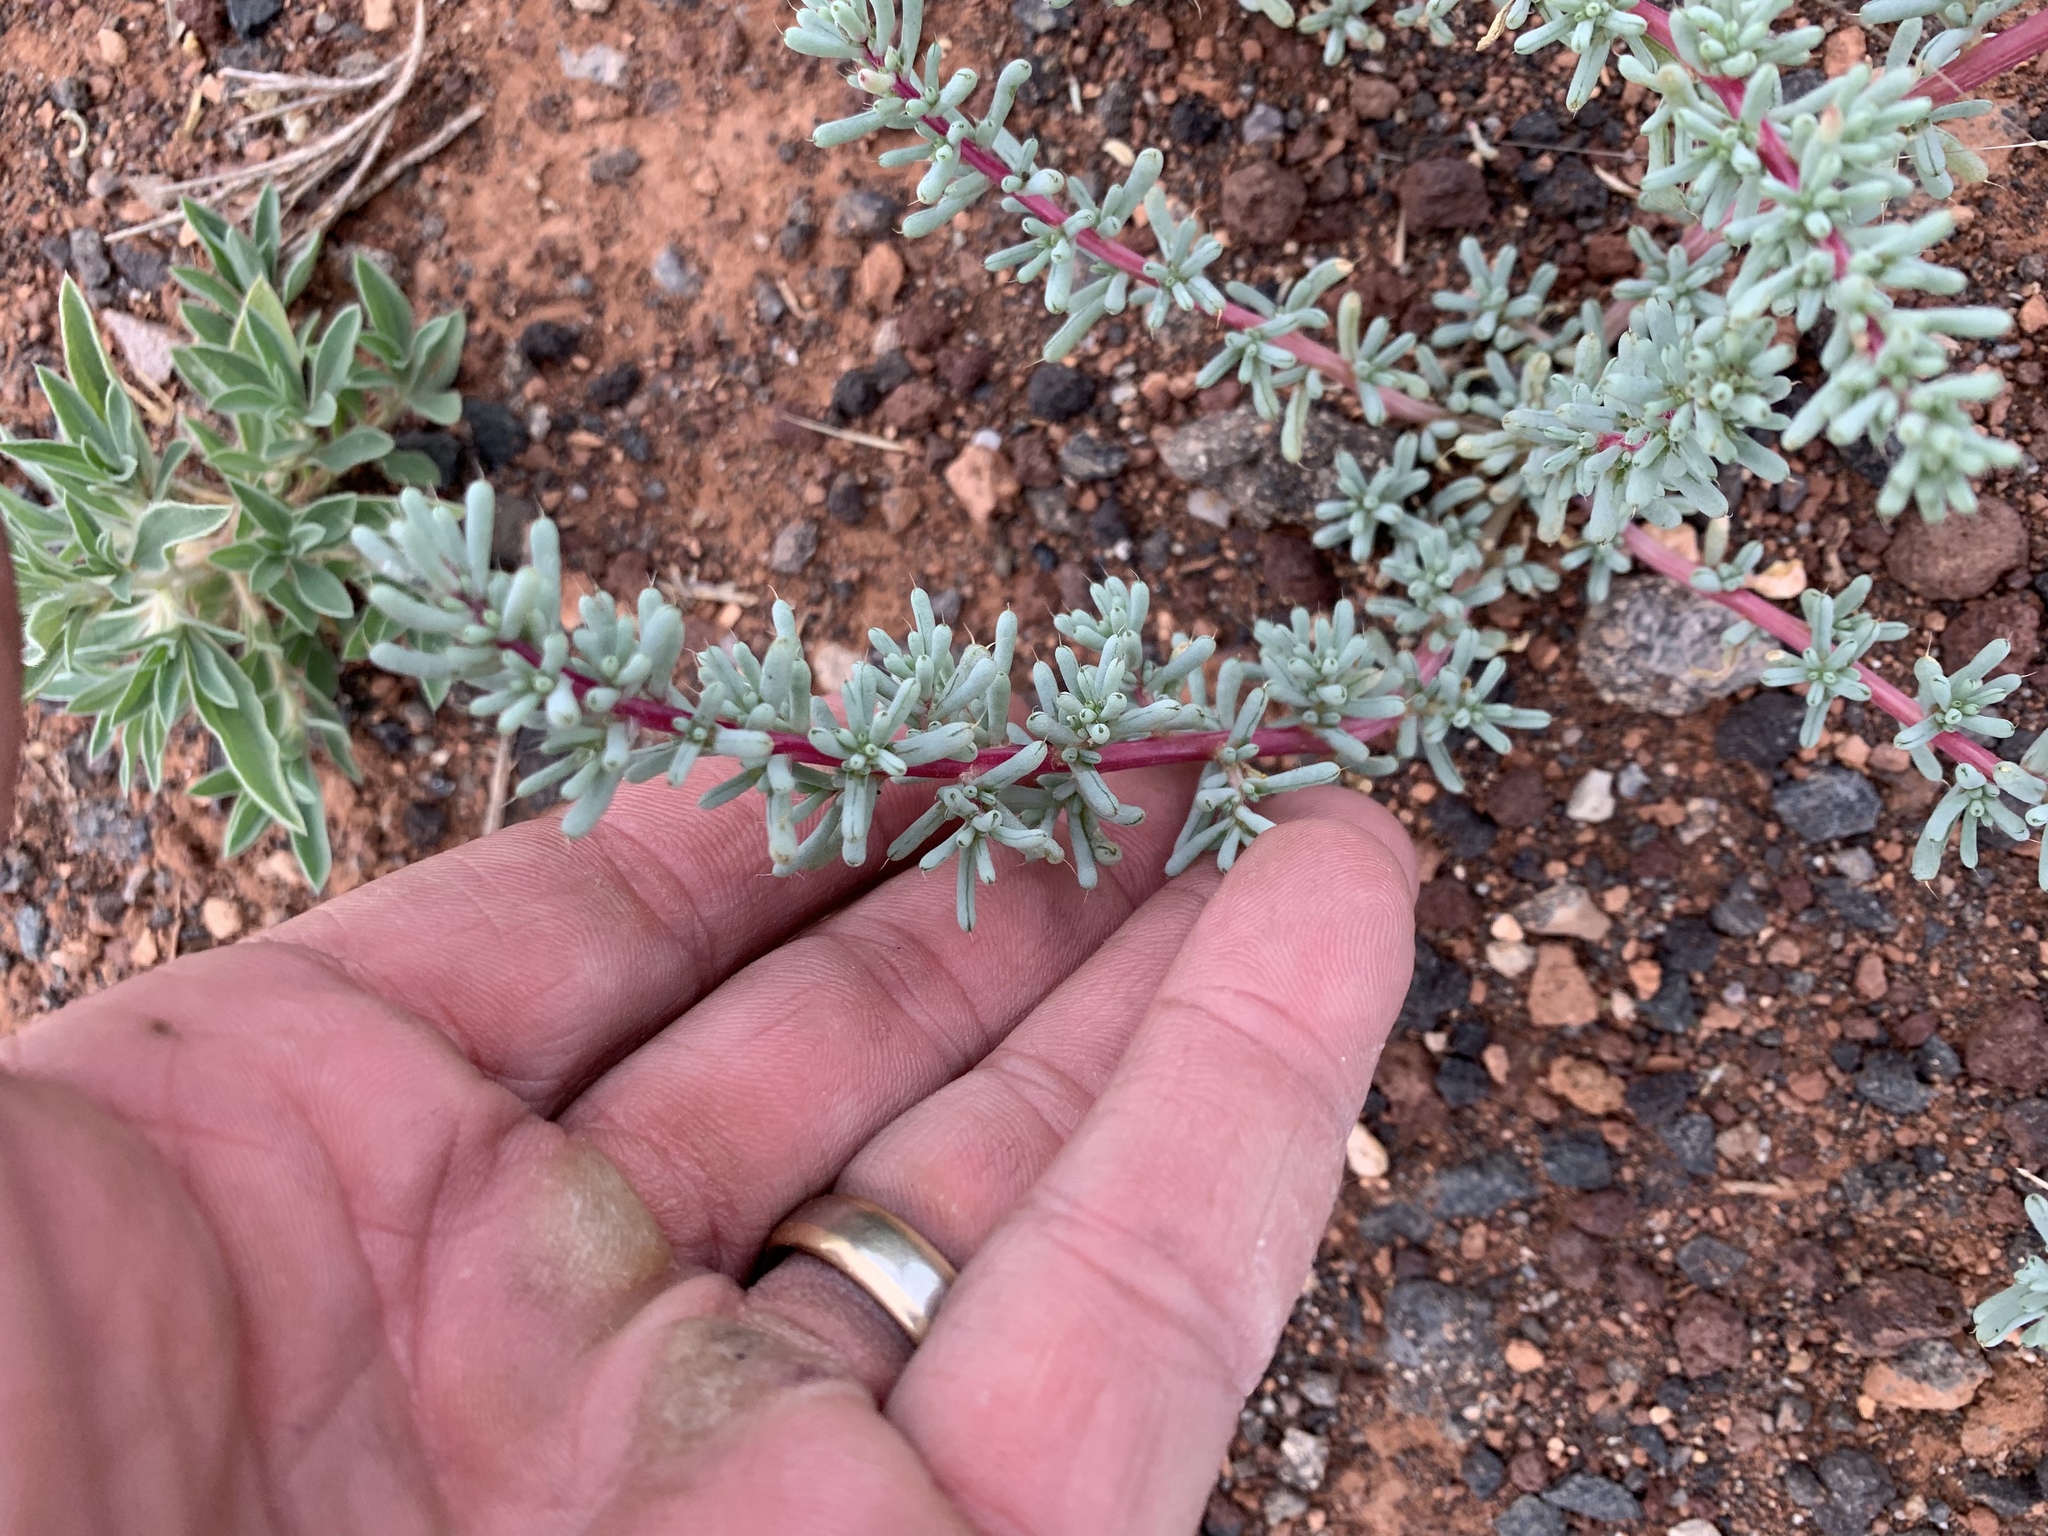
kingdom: Plantae
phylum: Tracheophyta
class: Magnoliopsida
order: Caryophyllales
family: Amaranthaceae
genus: Halogeton
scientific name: Halogeton glomeratus
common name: Saltlover
